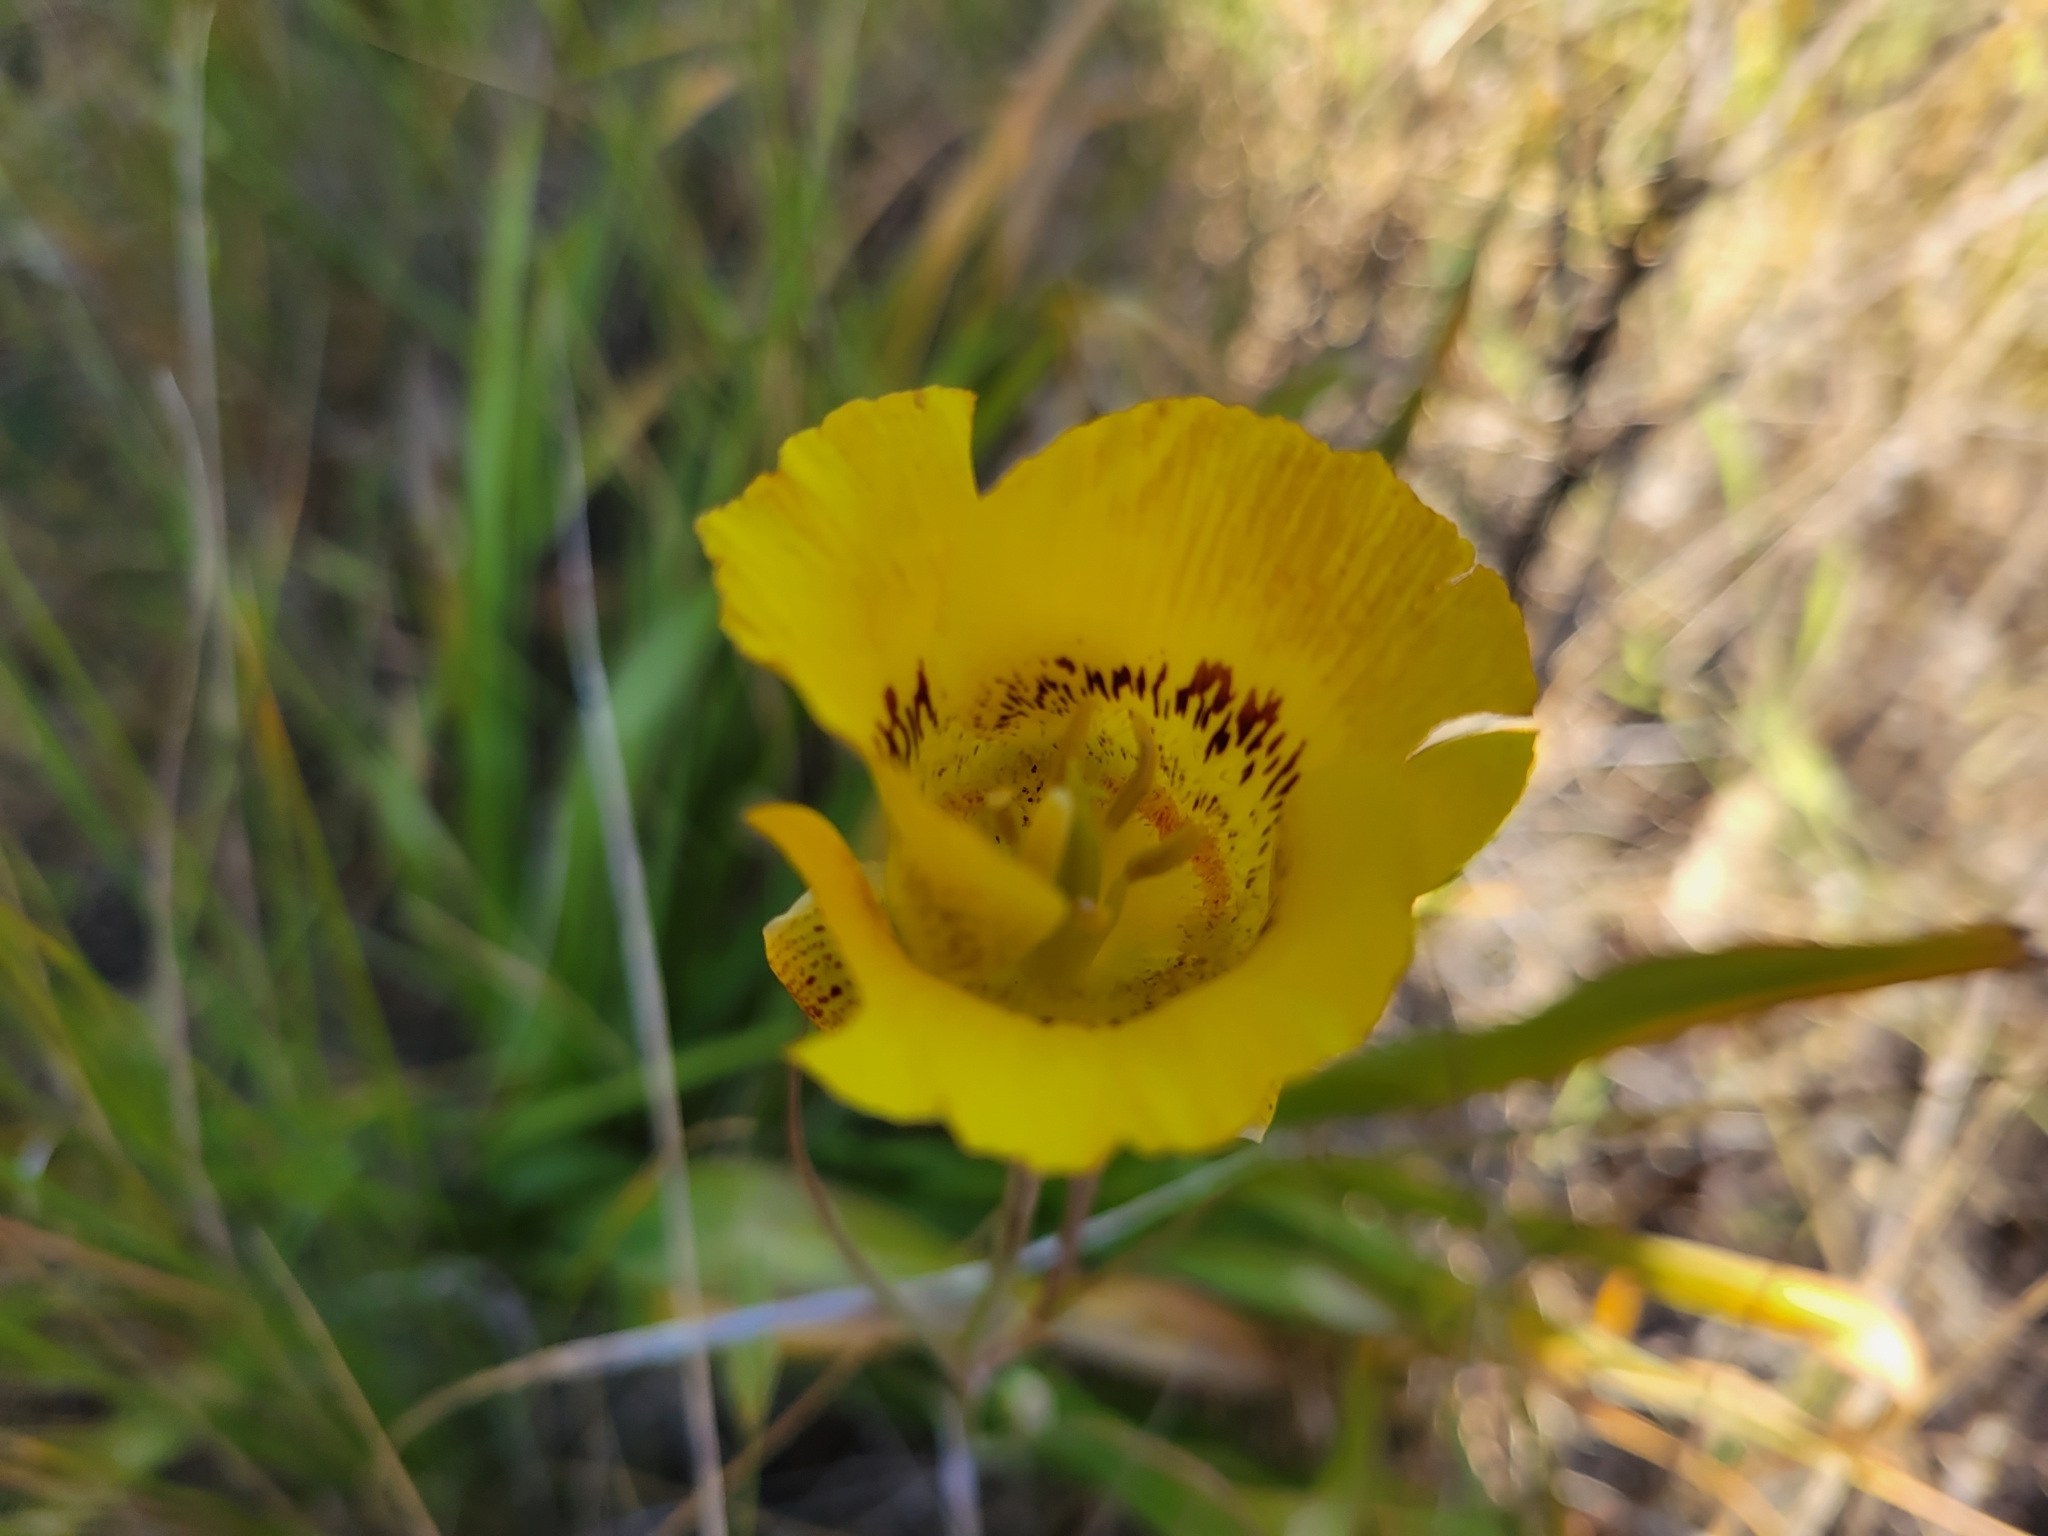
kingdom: Plantae
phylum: Tracheophyta
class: Liliopsida
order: Liliales
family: Liliaceae
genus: Calochortus
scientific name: Calochortus luteus
